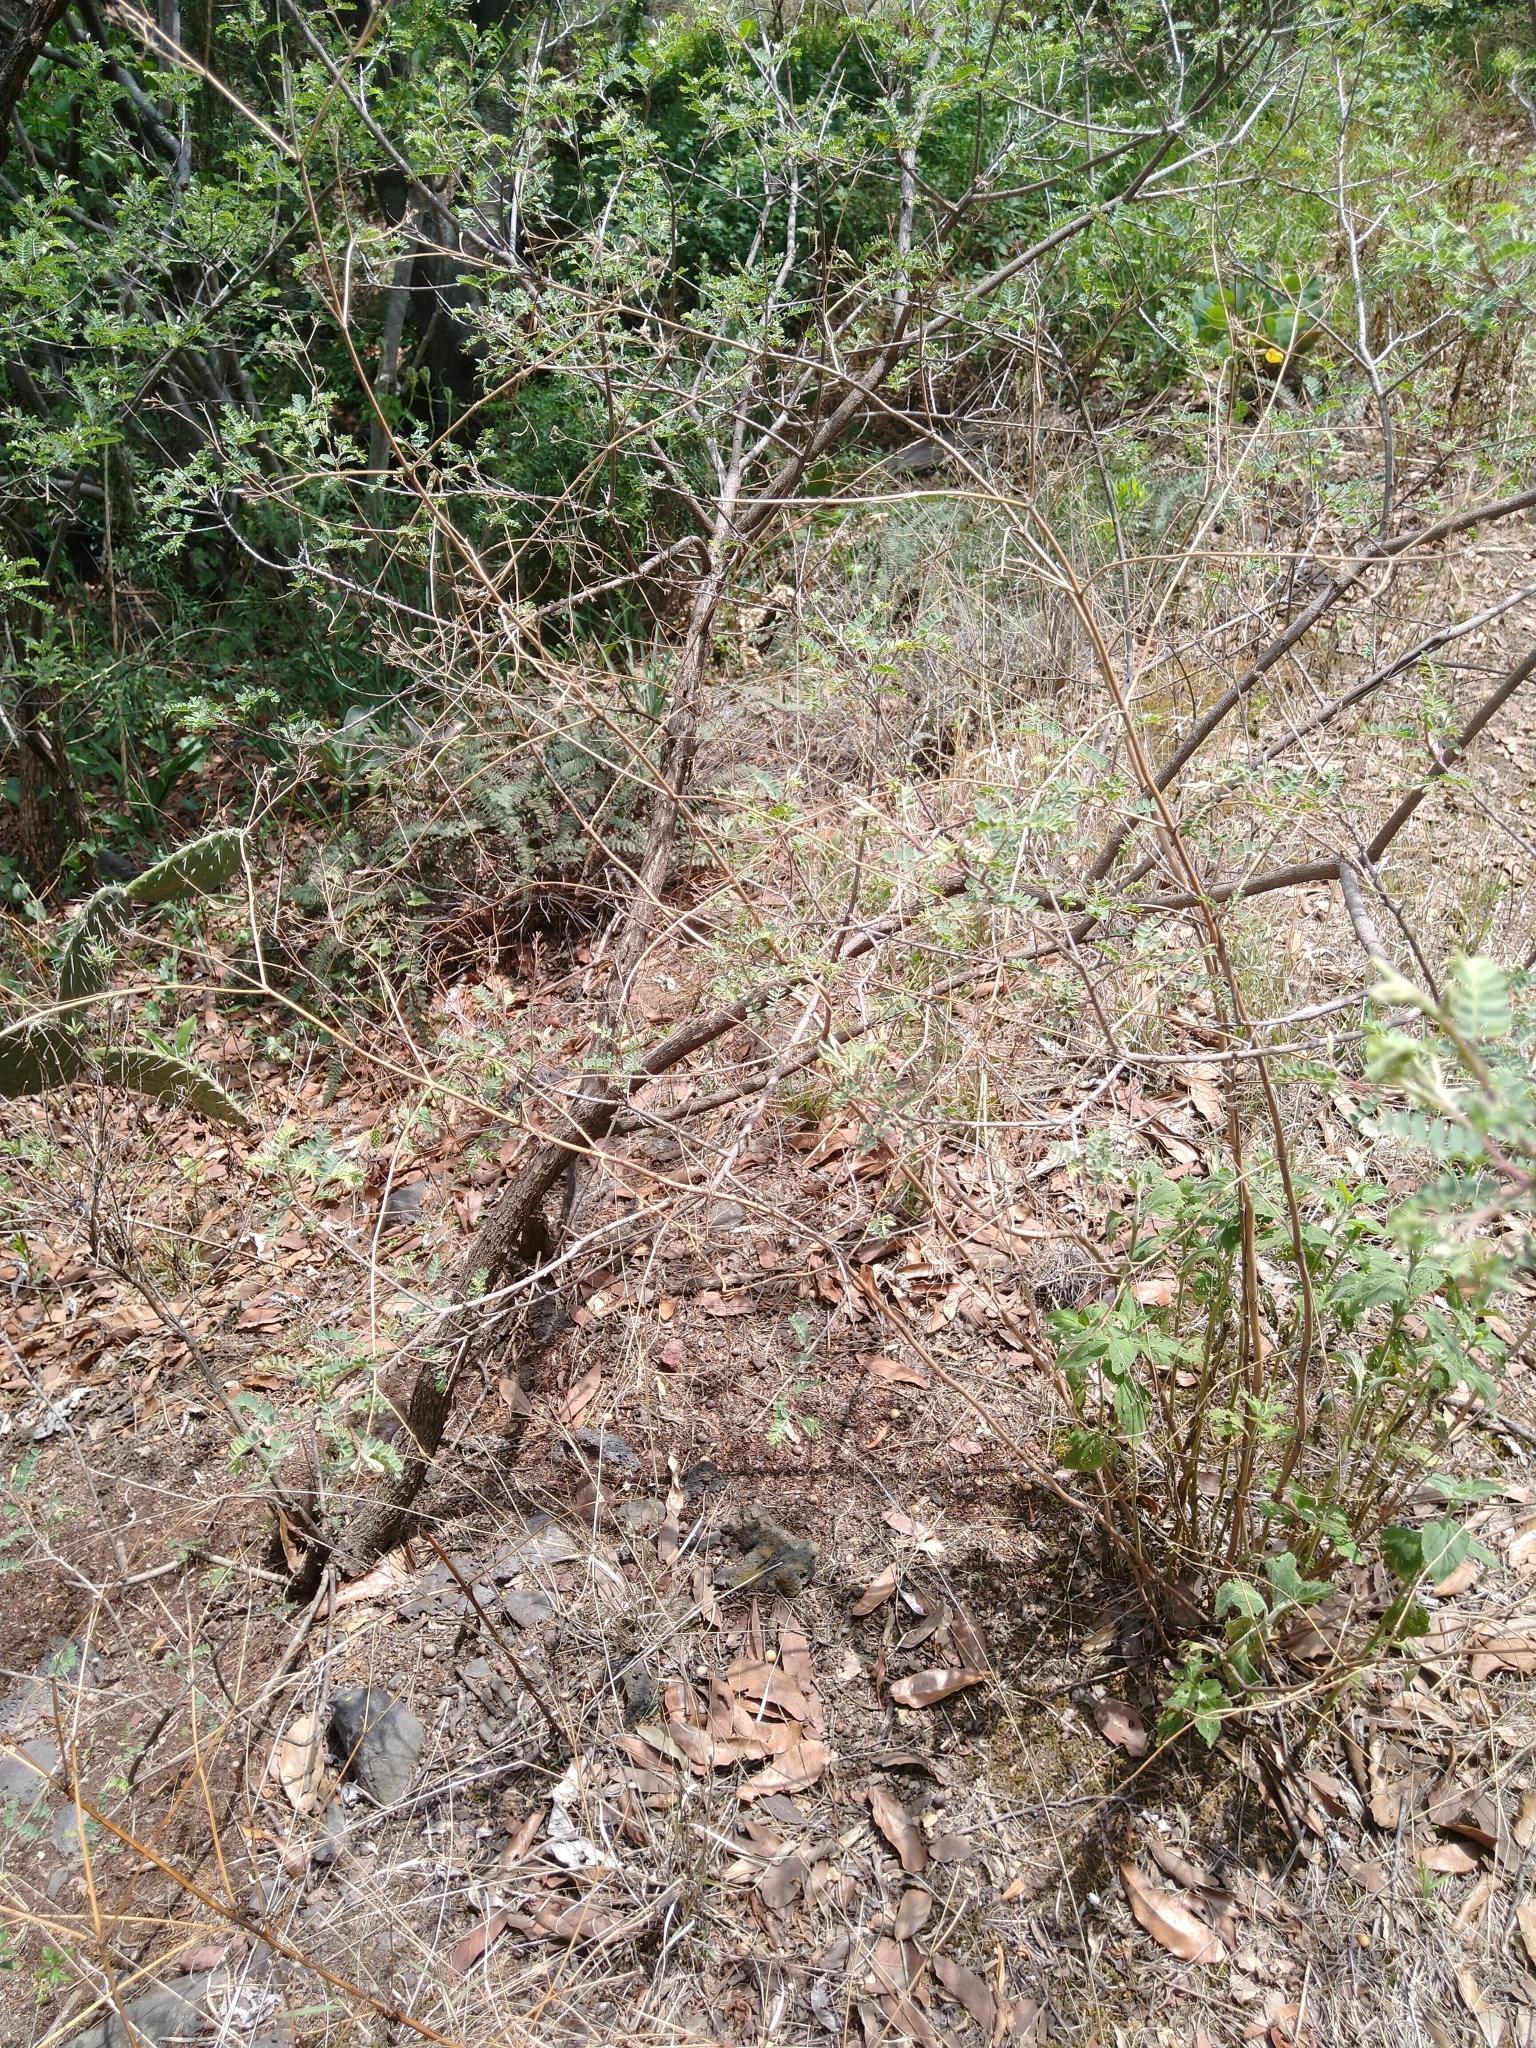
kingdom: Plantae
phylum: Tracheophyta
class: Magnoliopsida
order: Fabales
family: Fabaceae
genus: Eysenhardtia
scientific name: Eysenhardtia polystachya
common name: Kidneywood
